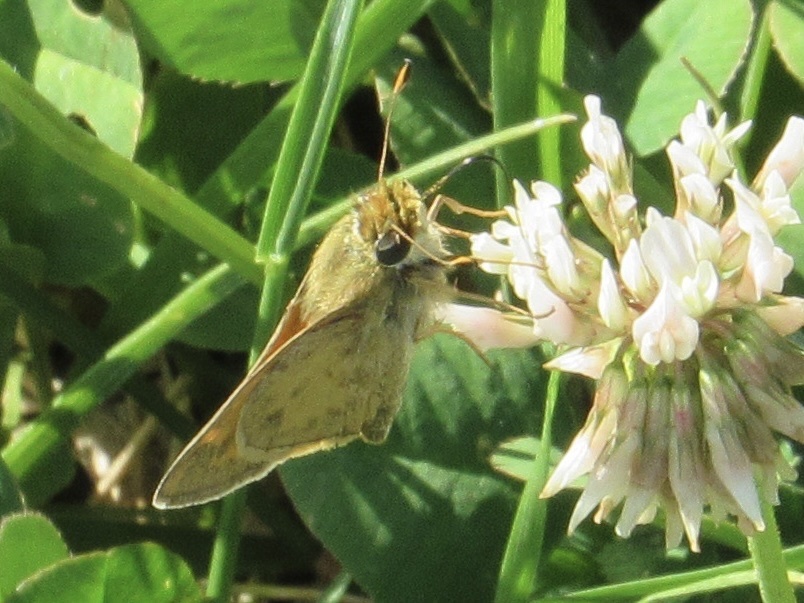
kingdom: Animalia
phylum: Arthropoda
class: Insecta
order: Lepidoptera
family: Hesperiidae
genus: Atalopedes
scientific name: Atalopedes
